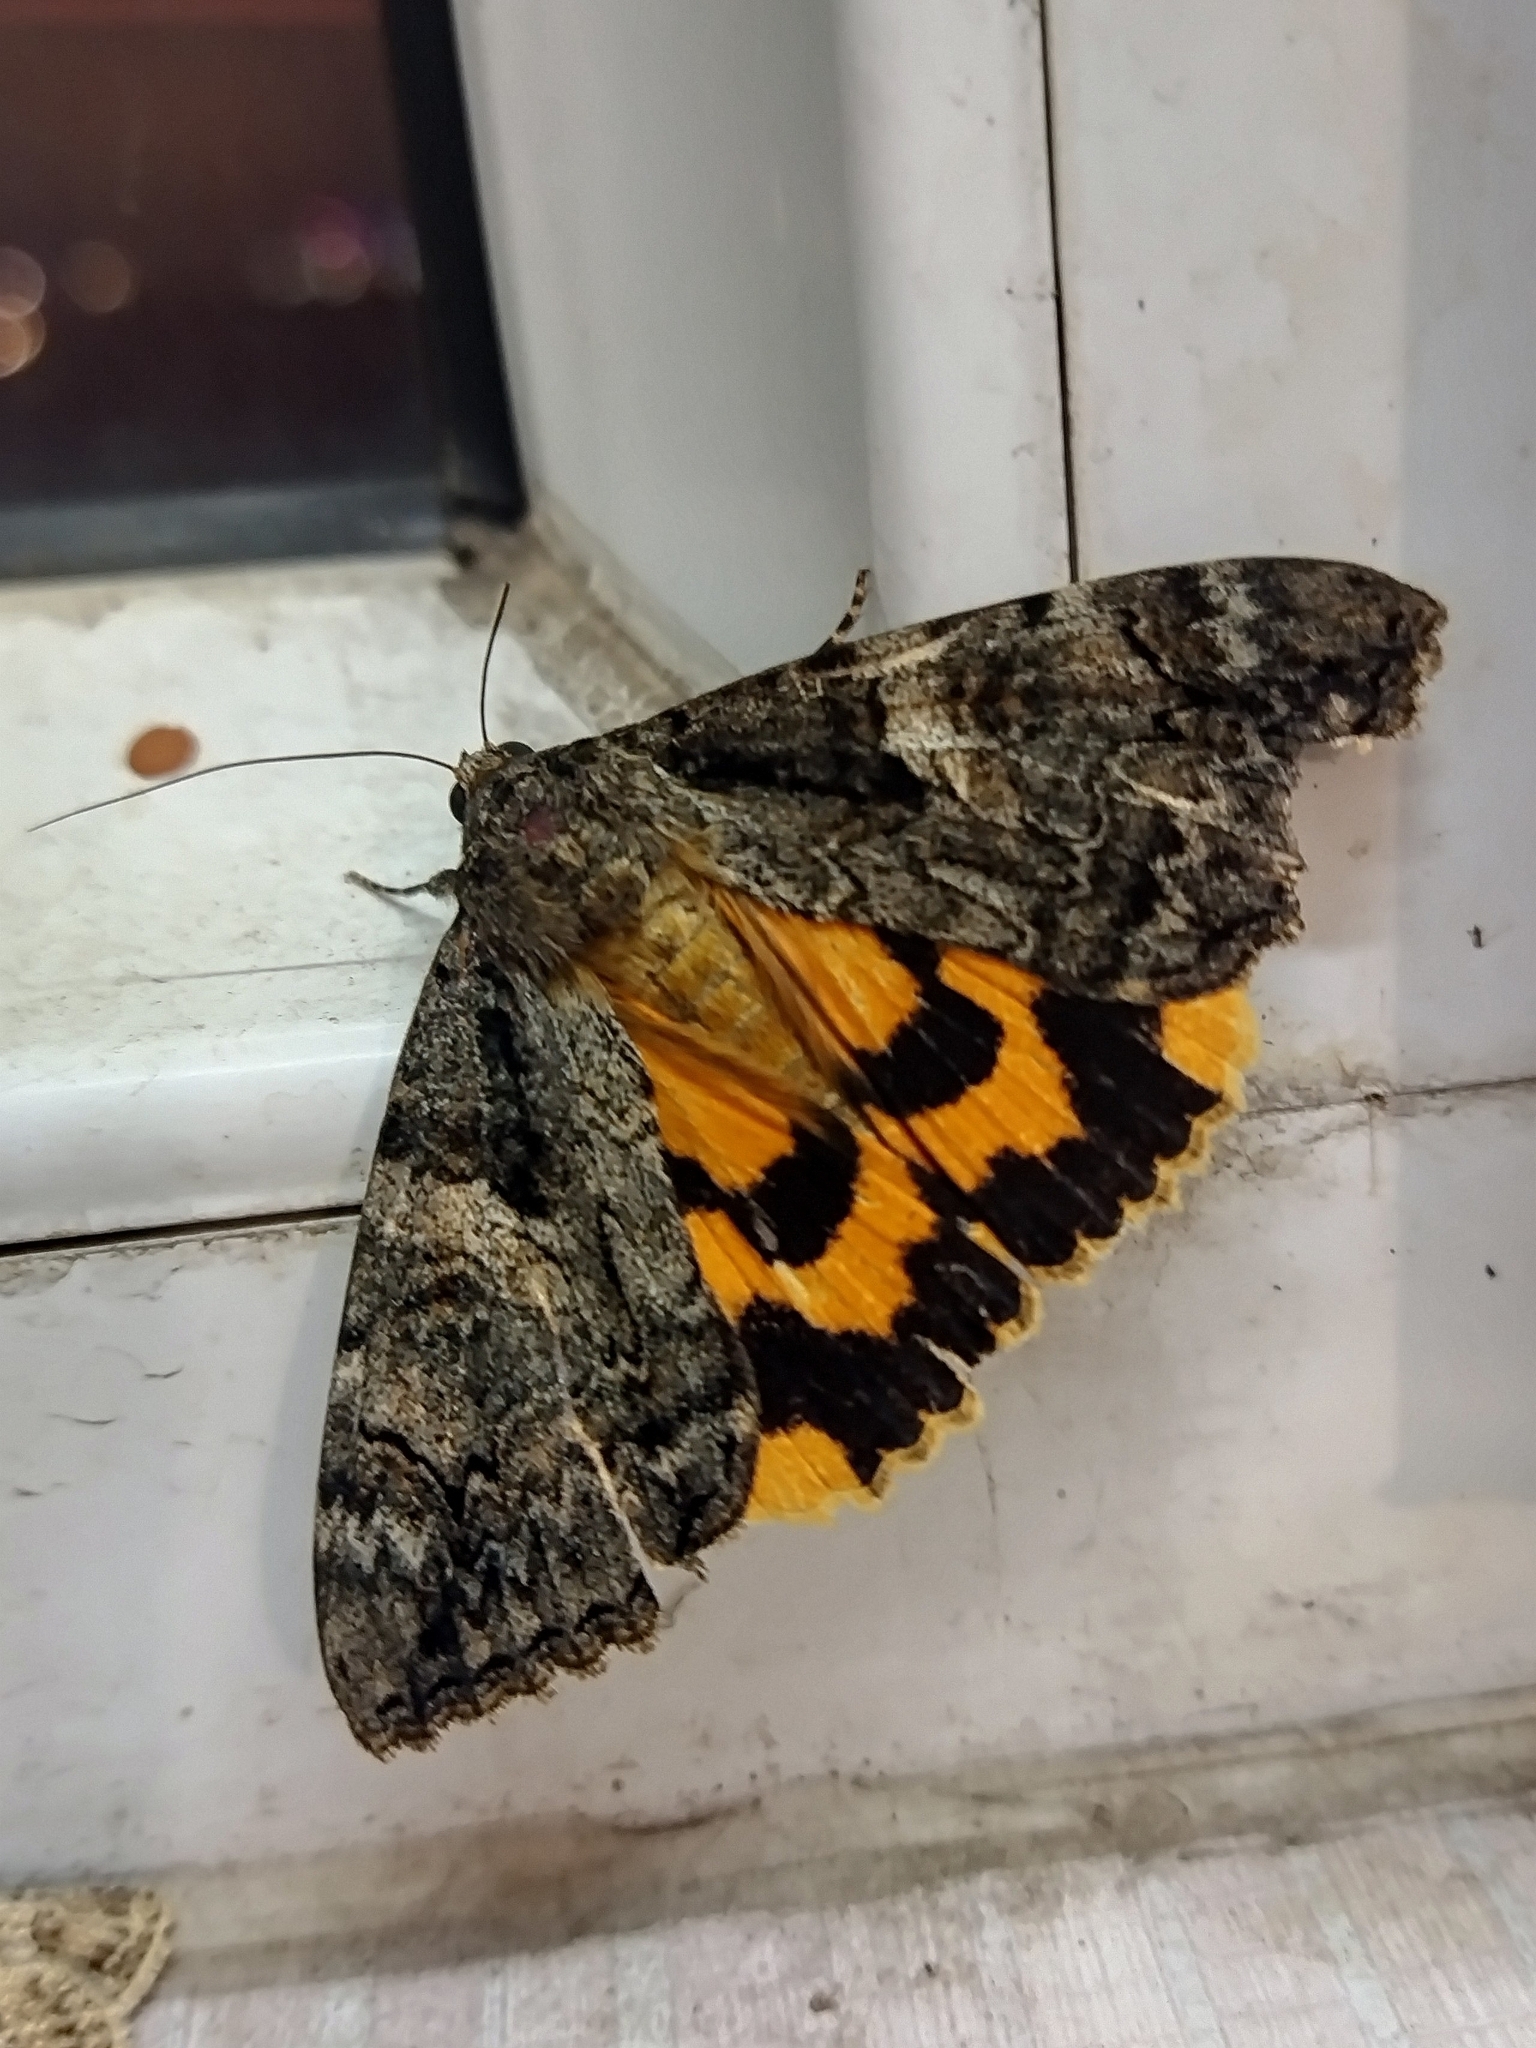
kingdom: Animalia
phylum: Arthropoda
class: Insecta
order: Lepidoptera
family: Erebidae
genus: Catocala
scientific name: Catocala helena
